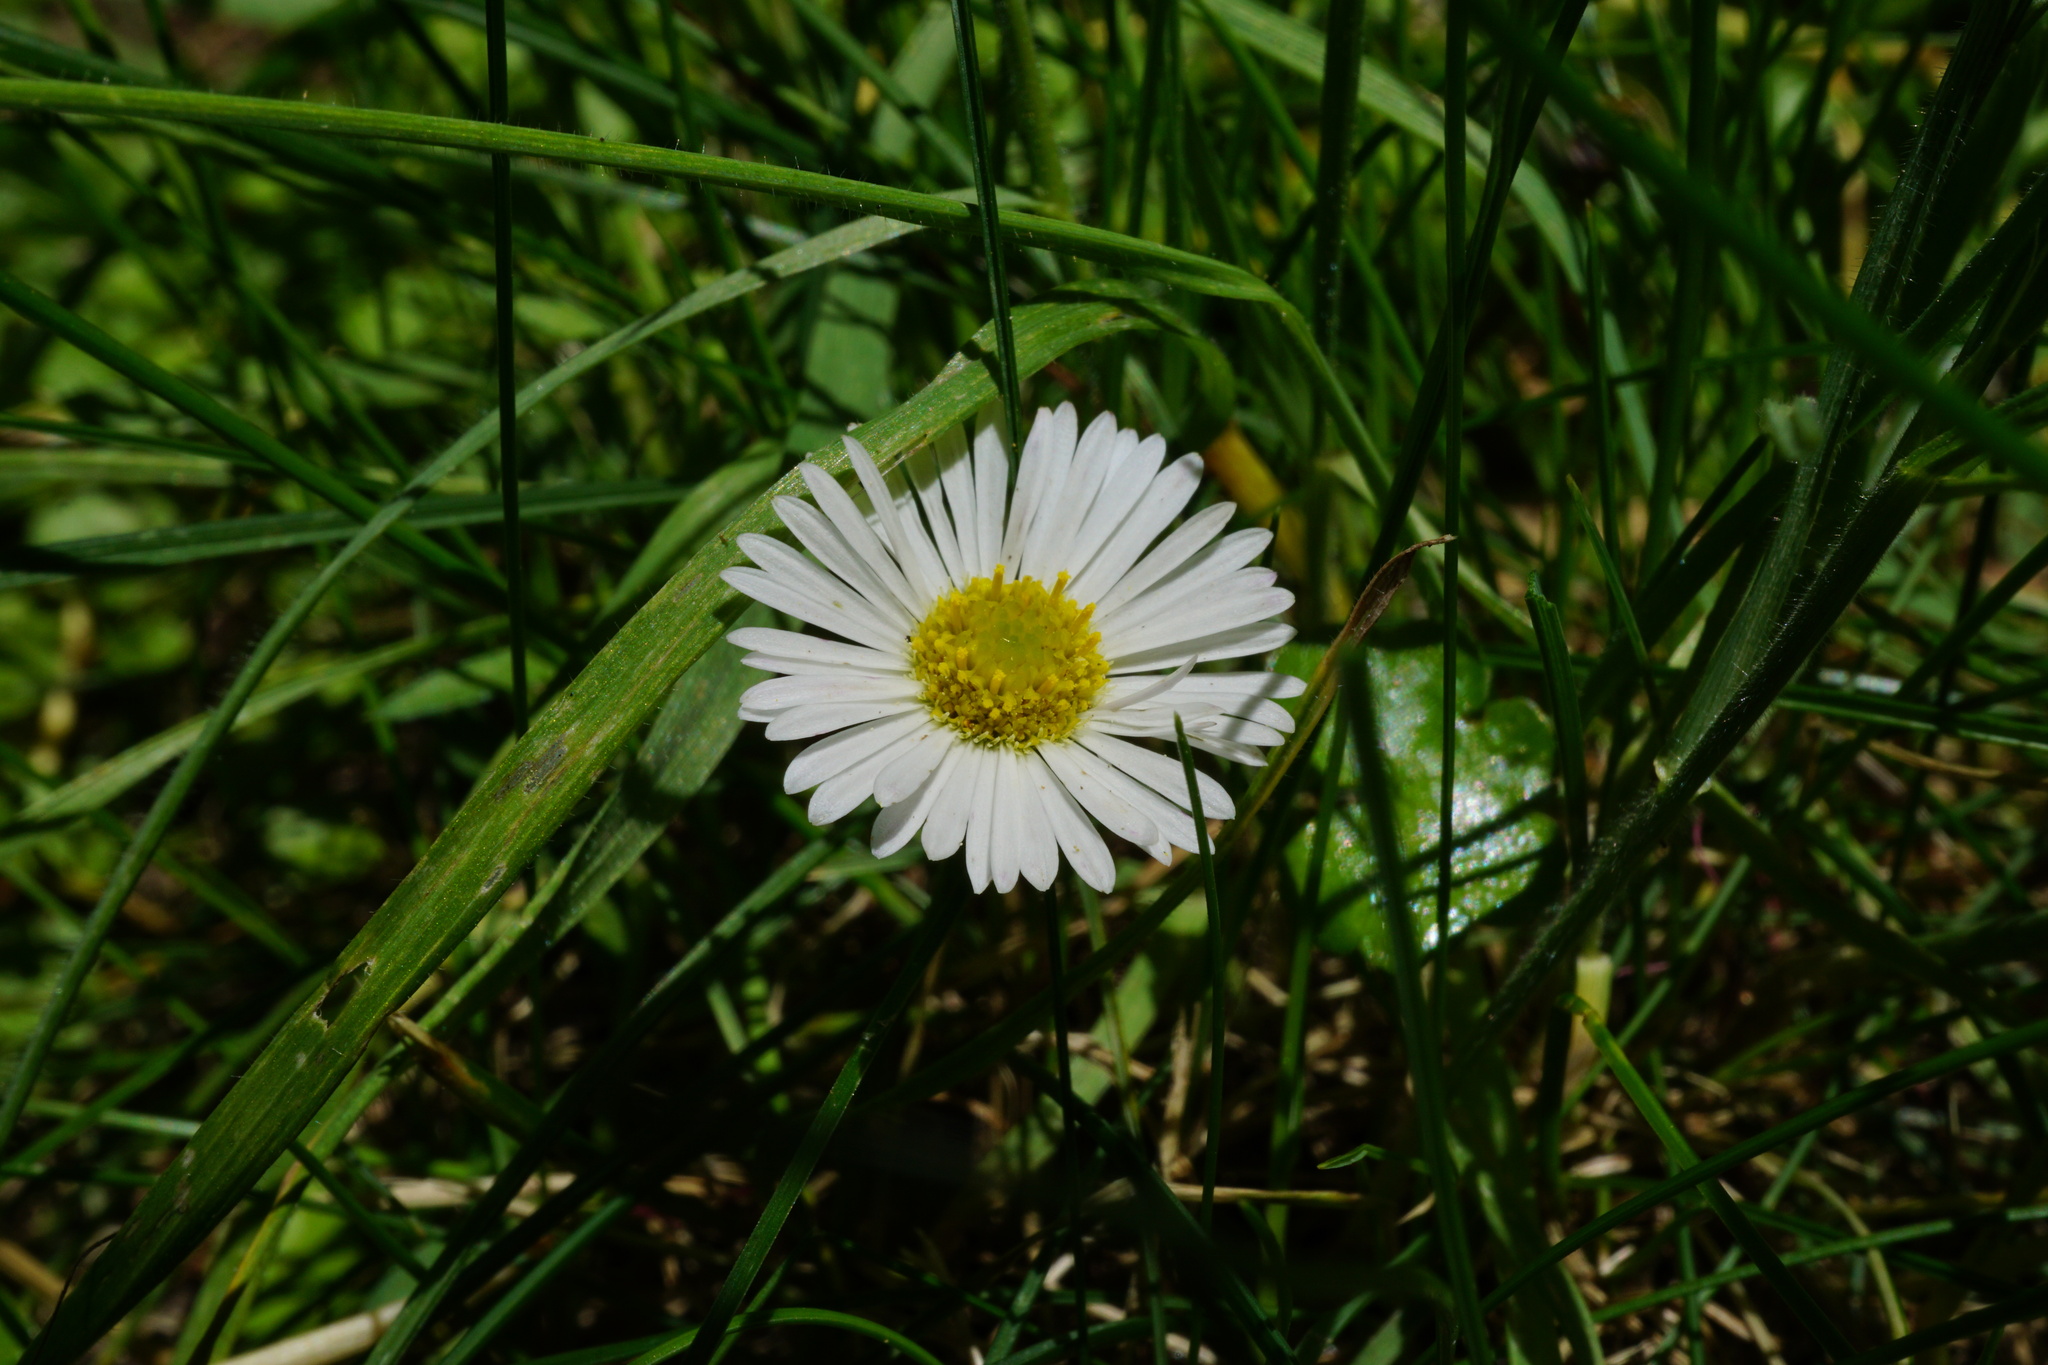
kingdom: Plantae
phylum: Tracheophyta
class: Magnoliopsida
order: Asterales
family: Asteraceae
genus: Bellis
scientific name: Bellis perennis
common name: Lawndaisy
